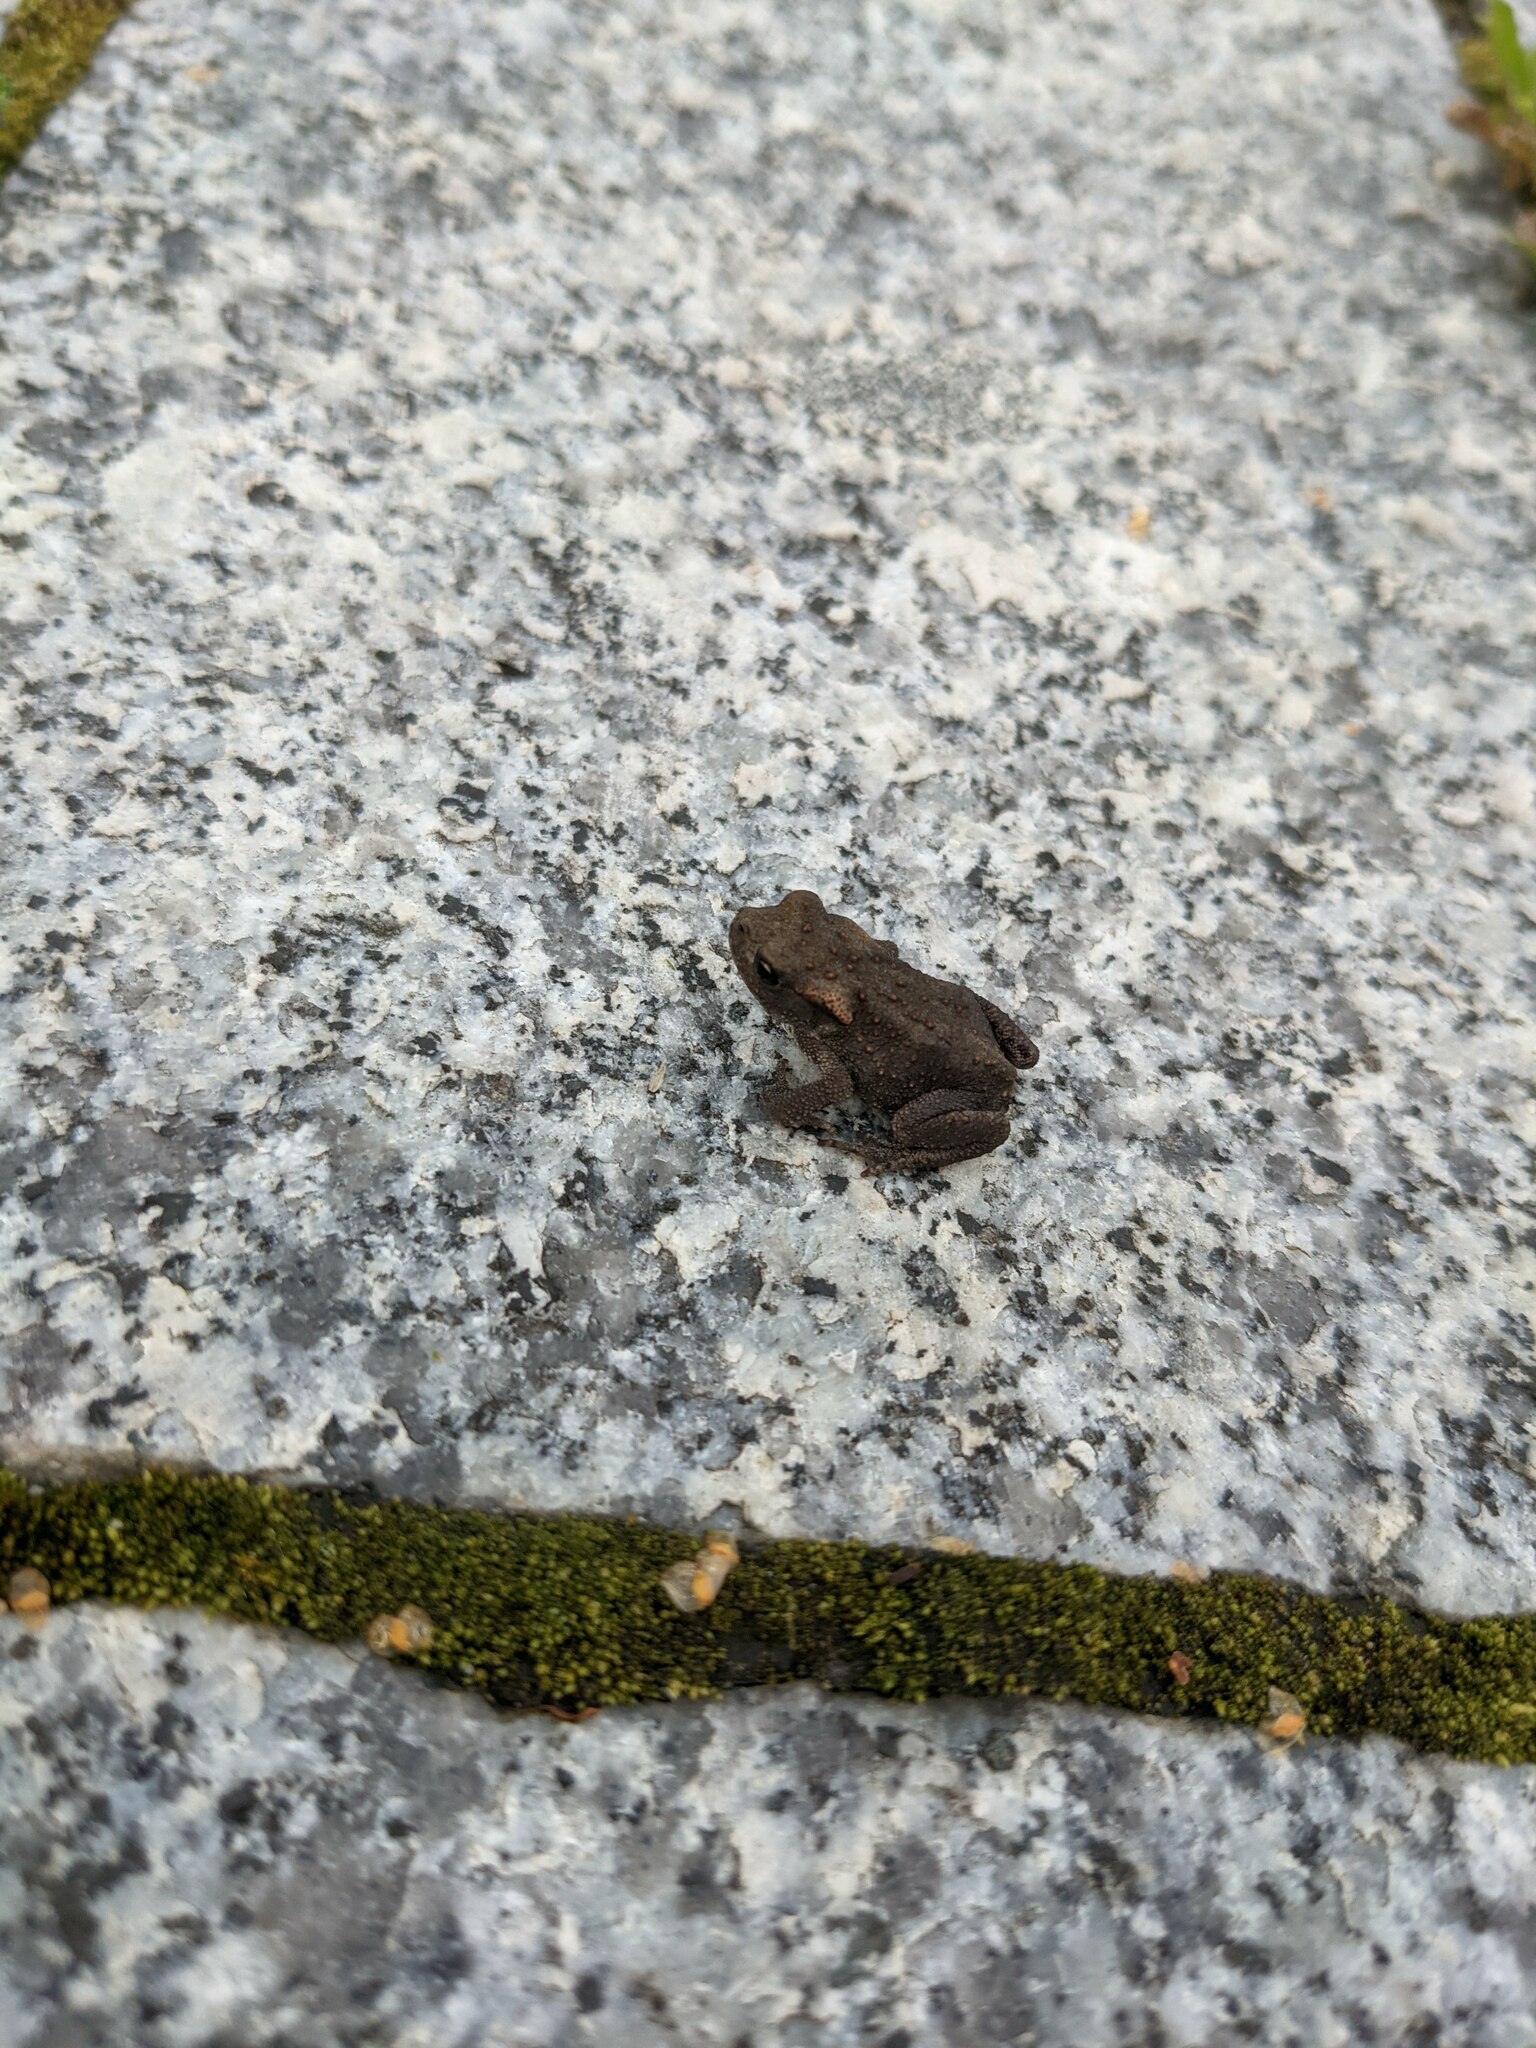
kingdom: Animalia
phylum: Chordata
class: Amphibia
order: Anura
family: Bufonidae
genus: Bufo
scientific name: Bufo bufo
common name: Common toad
